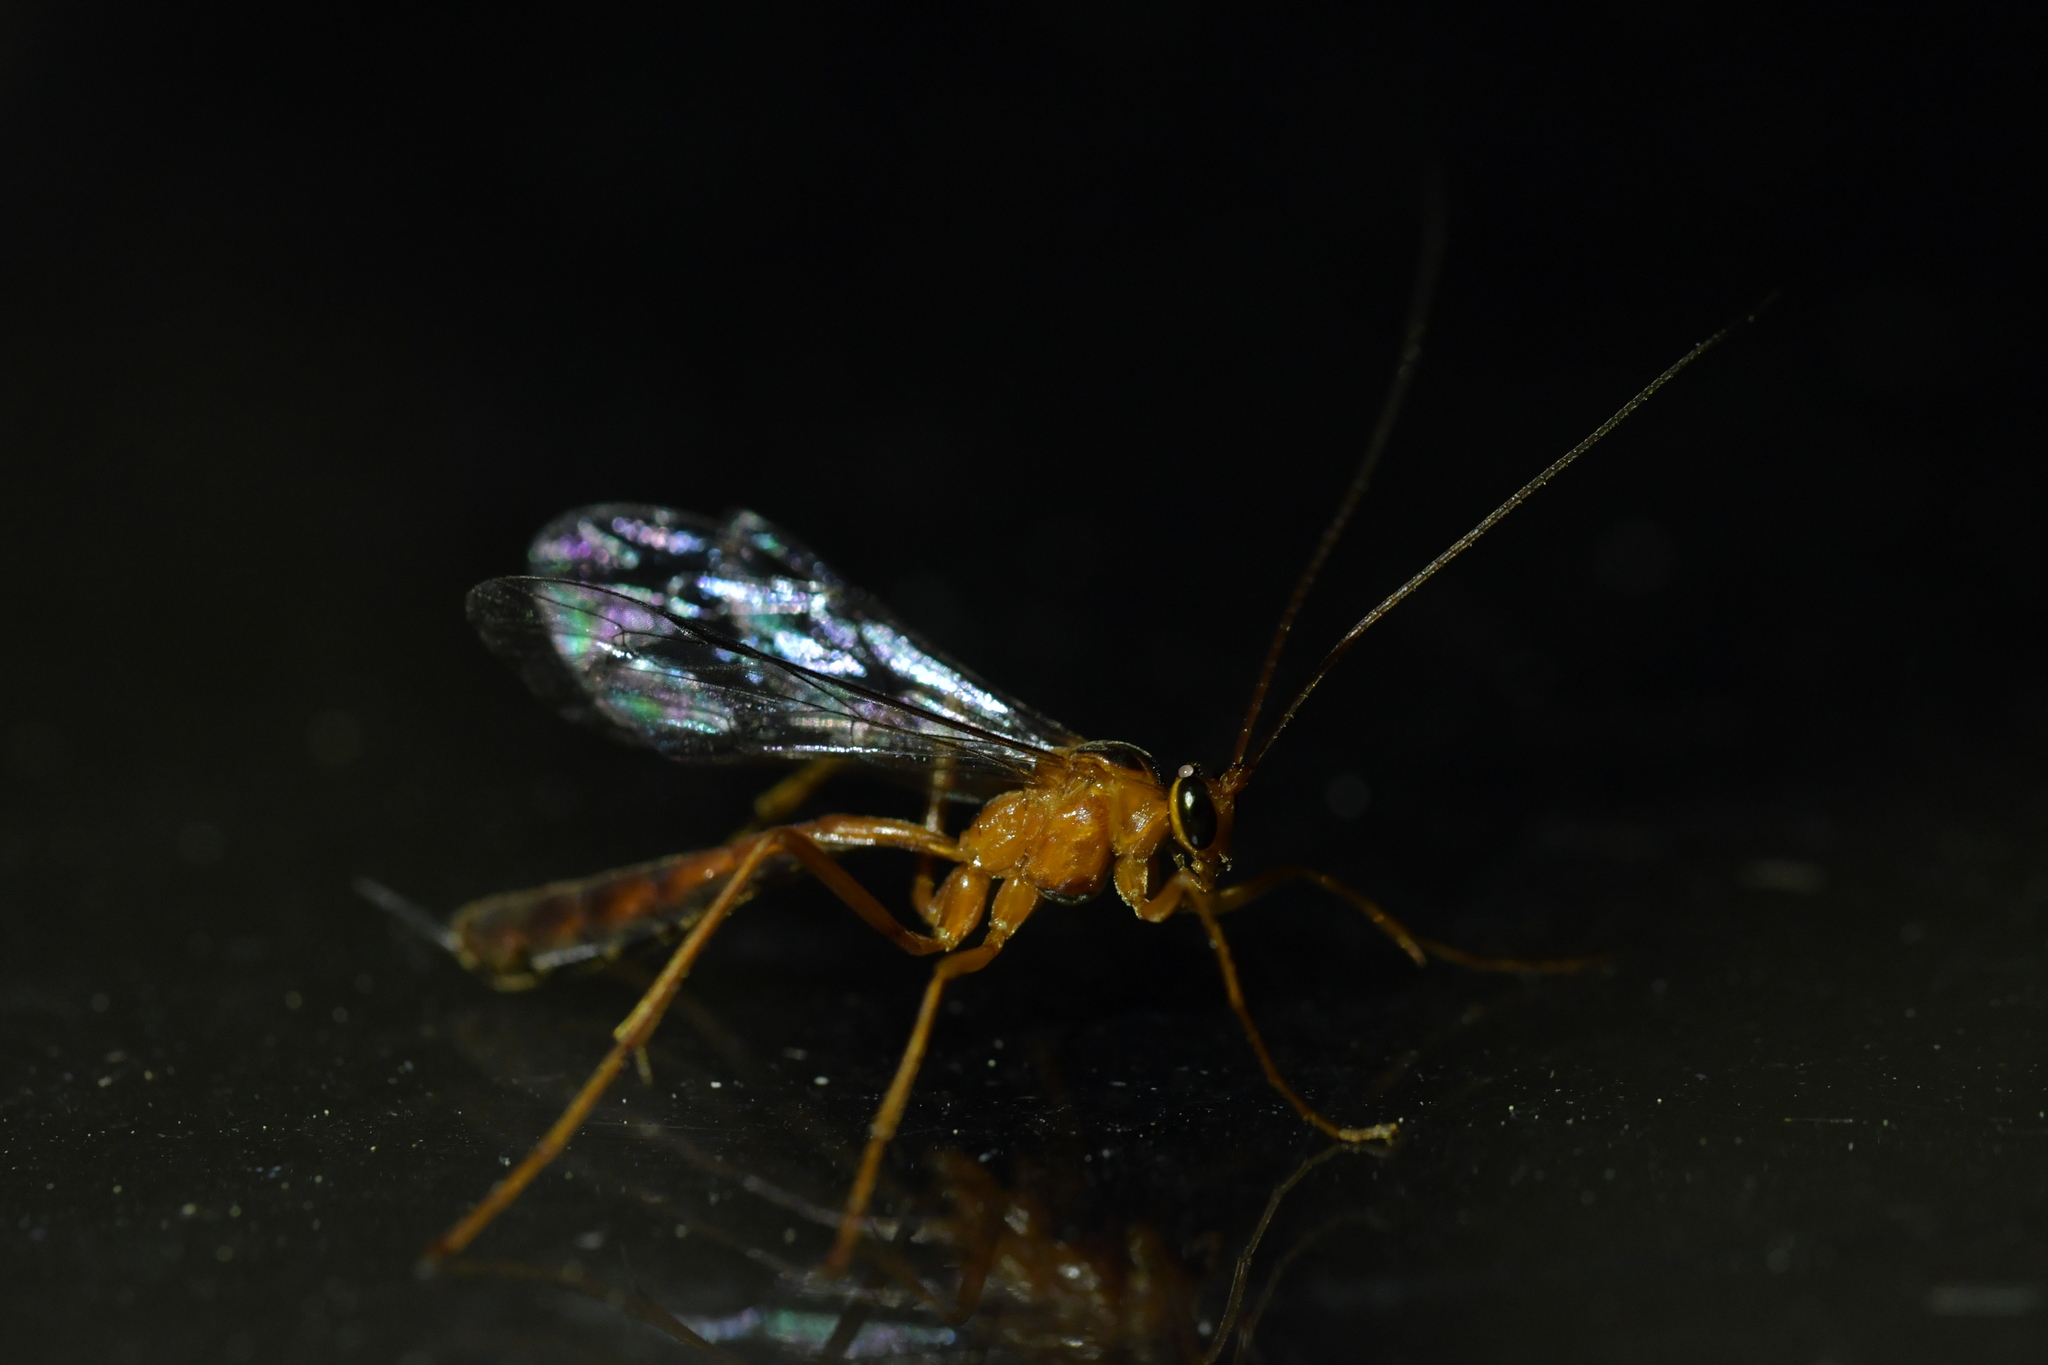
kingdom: Animalia
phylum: Arthropoda
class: Insecta
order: Hymenoptera
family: Ichneumonidae
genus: Netelia
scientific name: Netelia ephippiata
